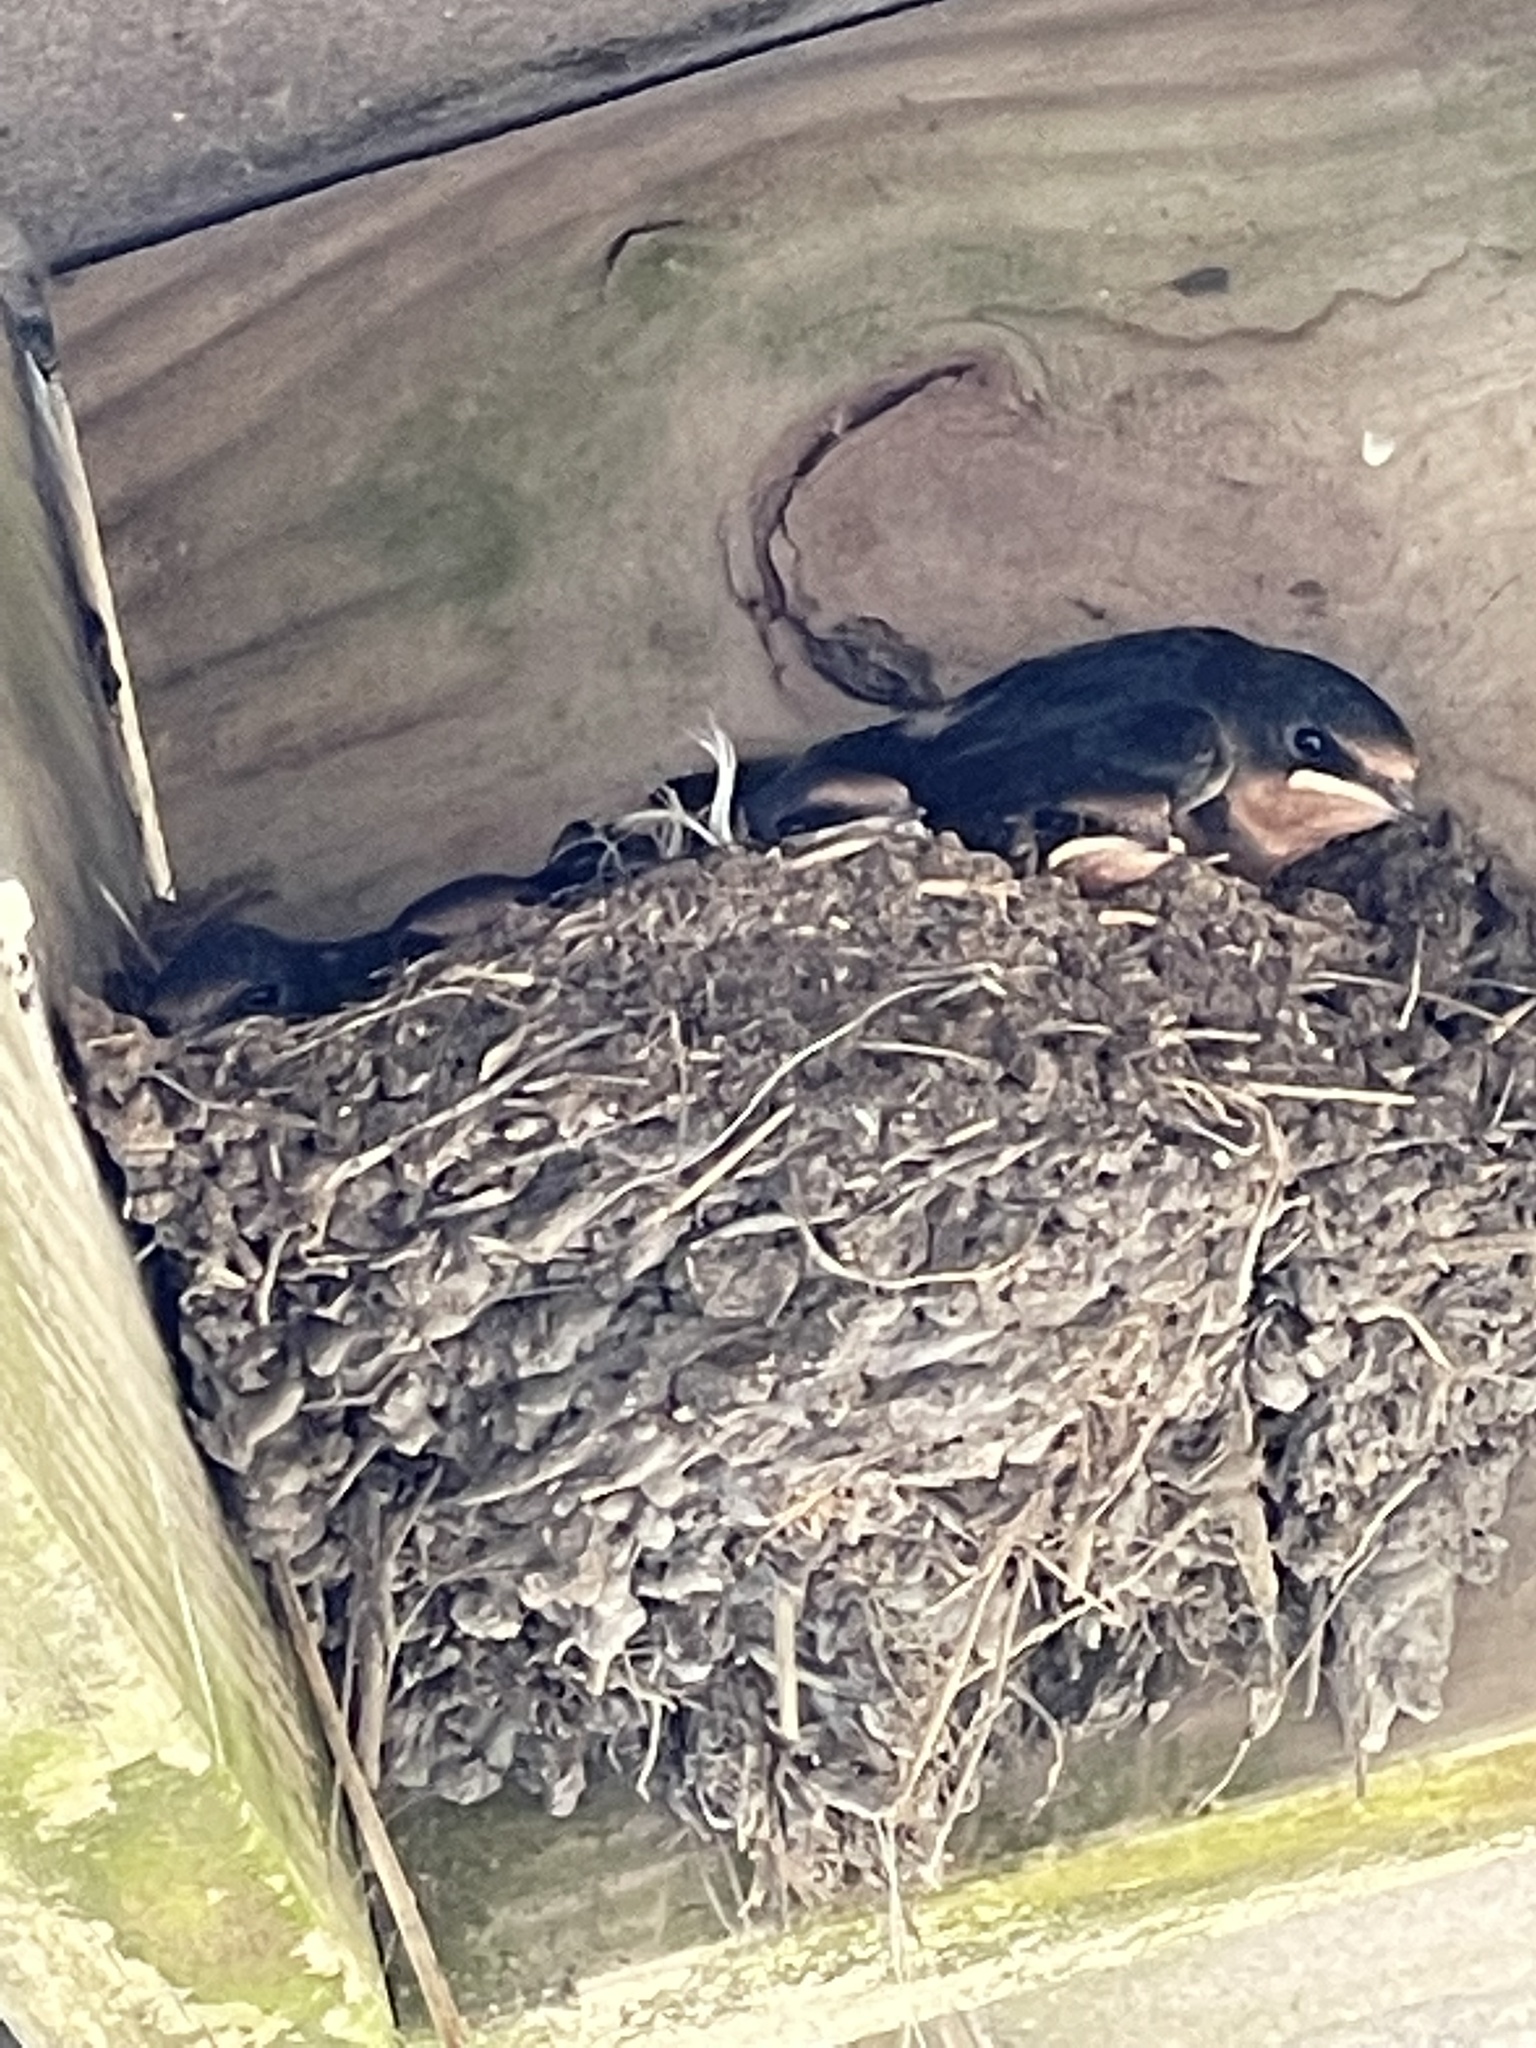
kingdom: Animalia
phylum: Chordata
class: Aves
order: Passeriformes
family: Hirundinidae
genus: Hirundo
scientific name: Hirundo rustica
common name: Barn swallow
